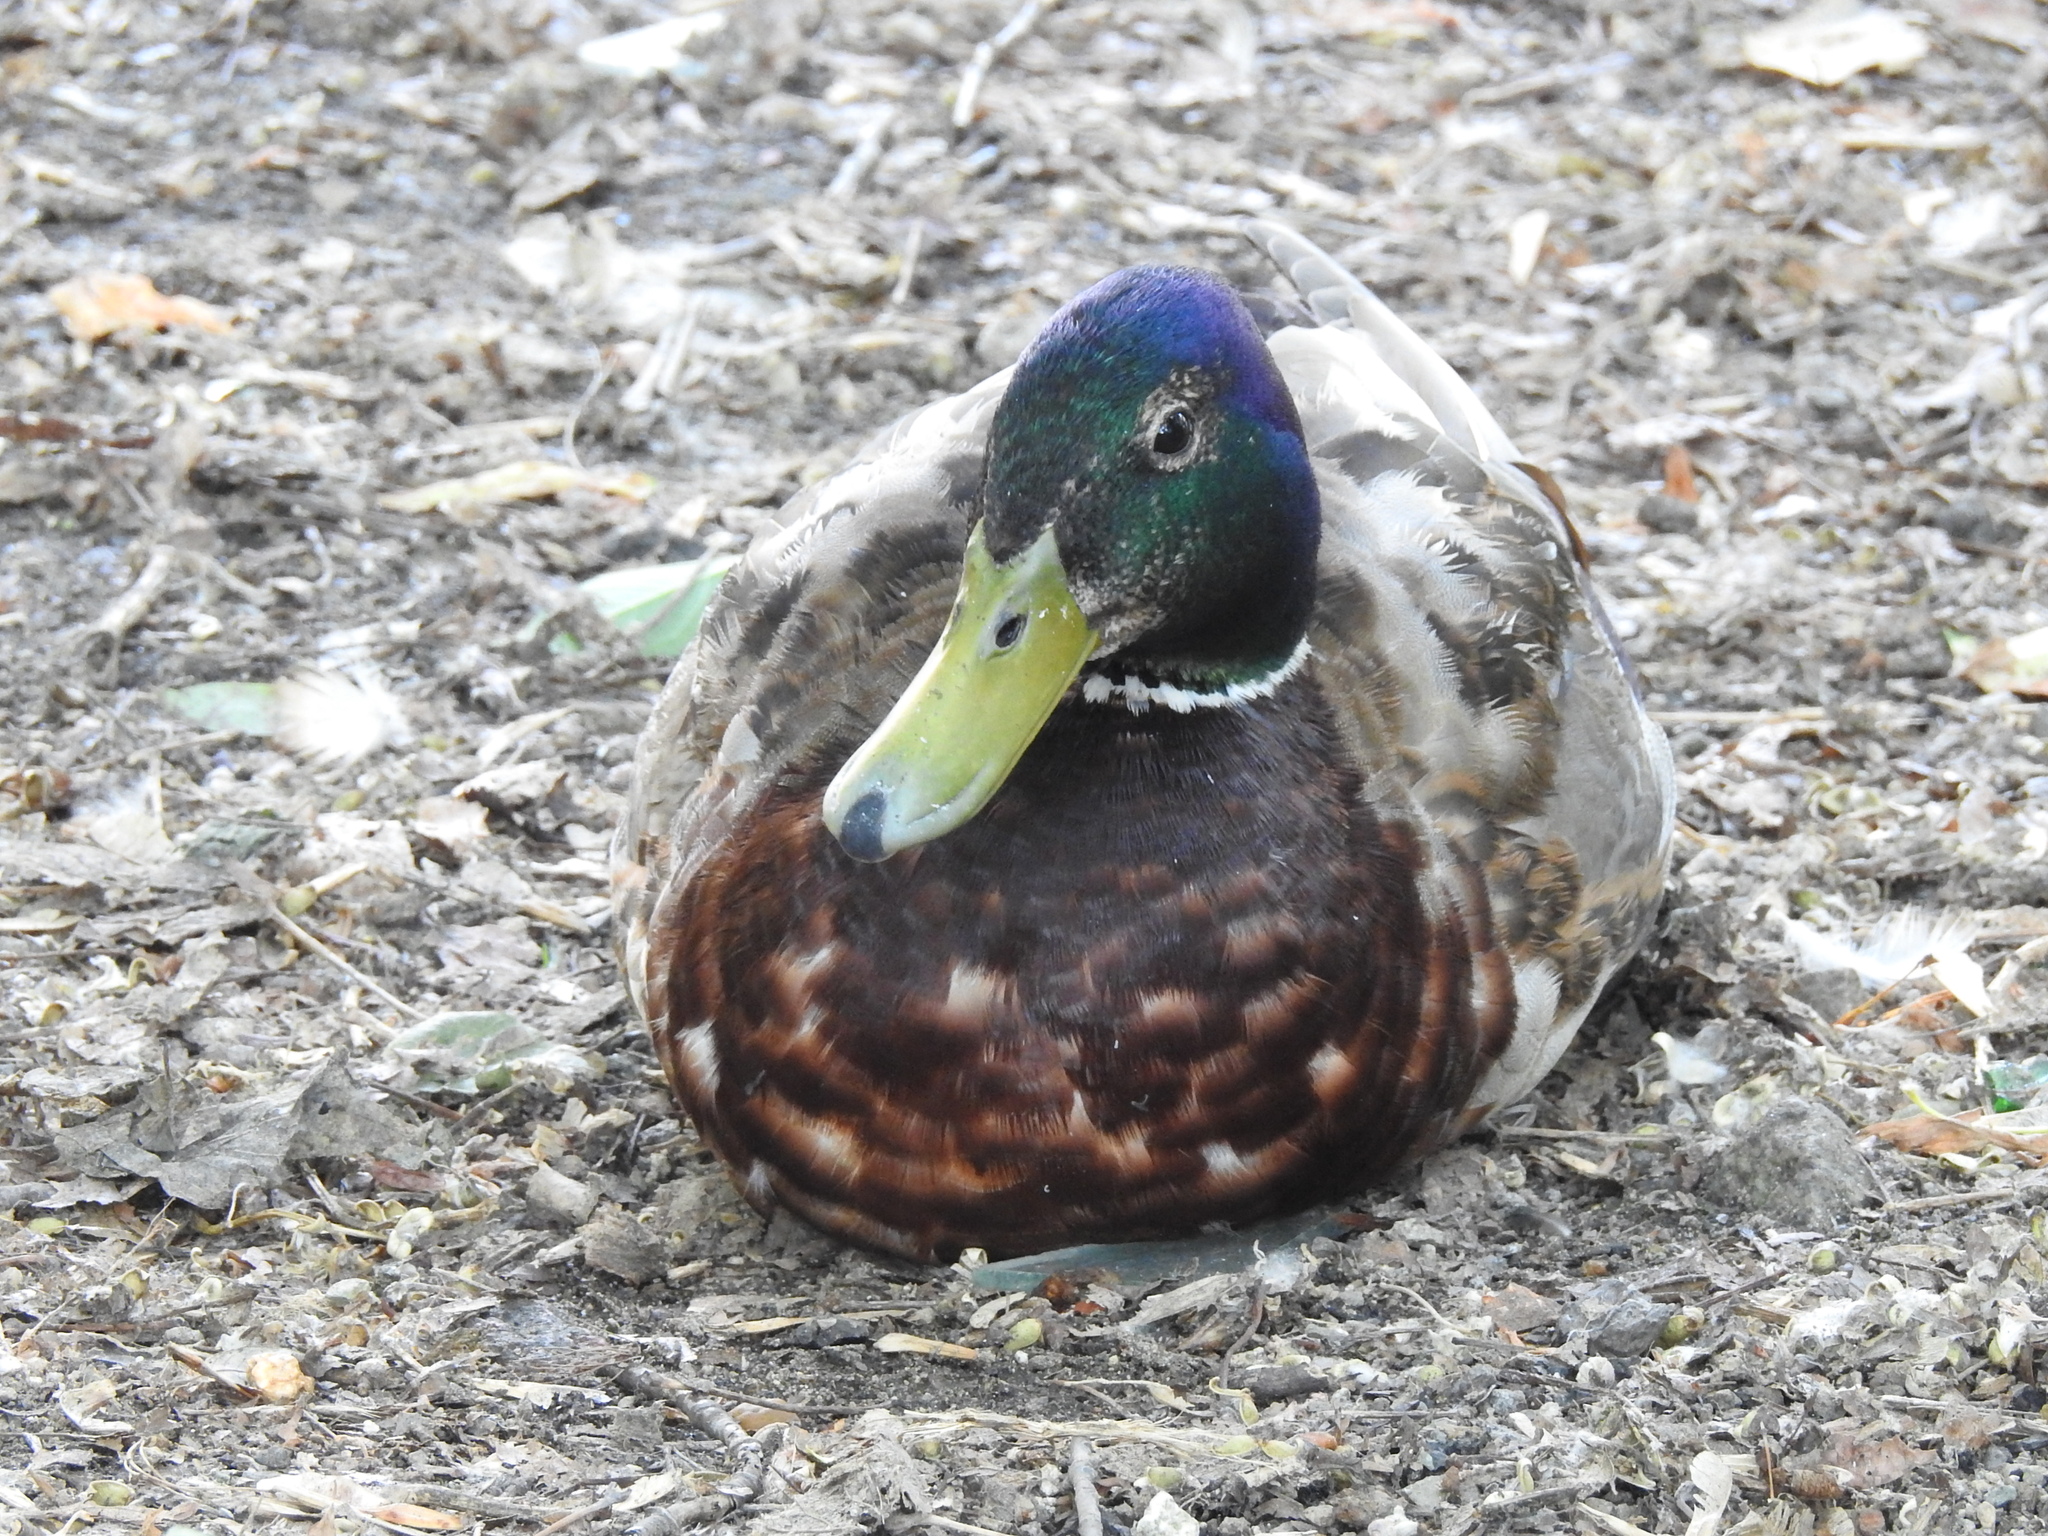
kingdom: Animalia
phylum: Chordata
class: Aves
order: Anseriformes
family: Anatidae
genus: Anas
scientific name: Anas platyrhynchos
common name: Mallard
